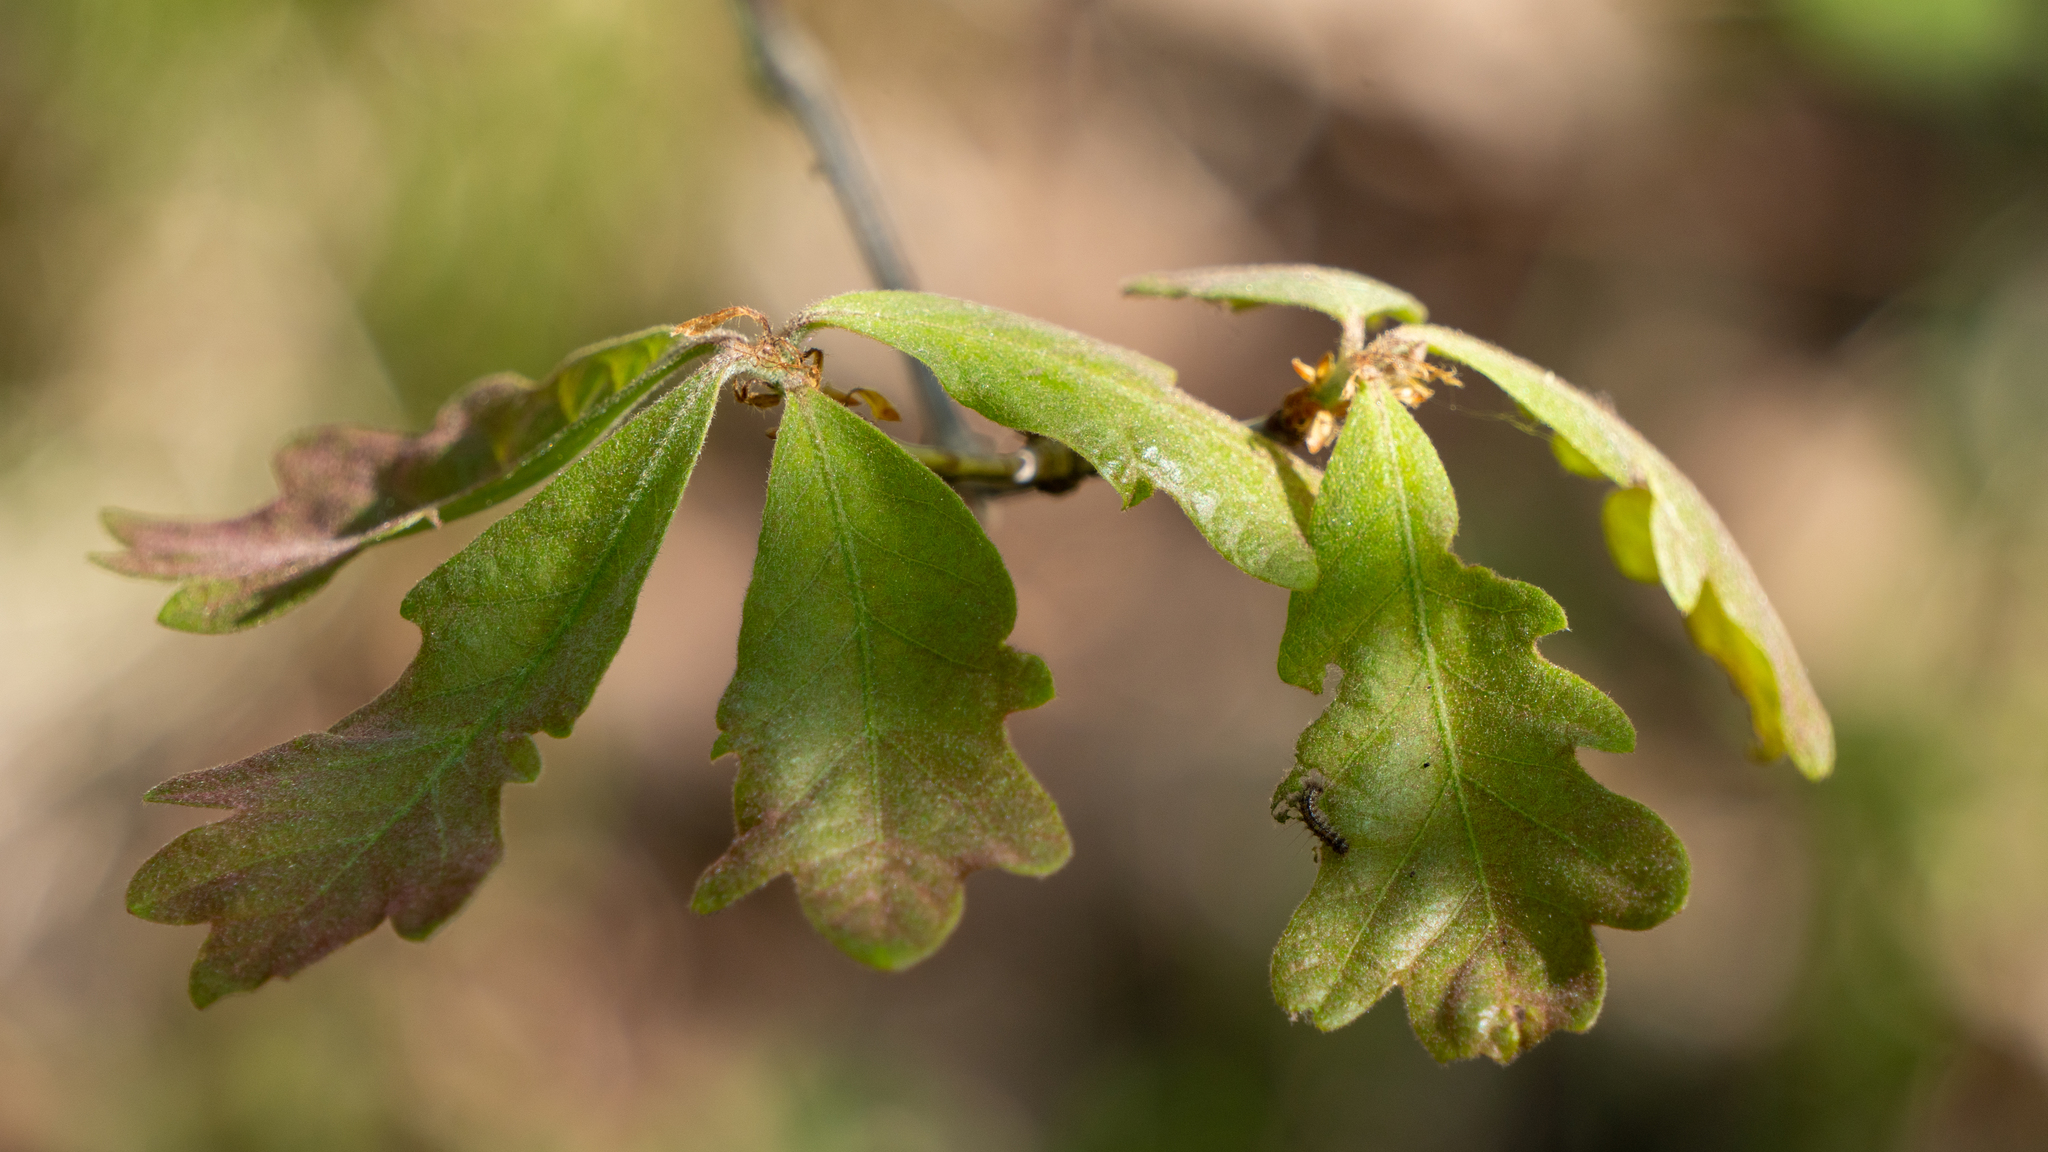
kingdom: Animalia
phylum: Arthropoda
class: Insecta
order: Lepidoptera
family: Erebidae
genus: Lymantria
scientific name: Lymantria dispar
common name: Gypsy moth
